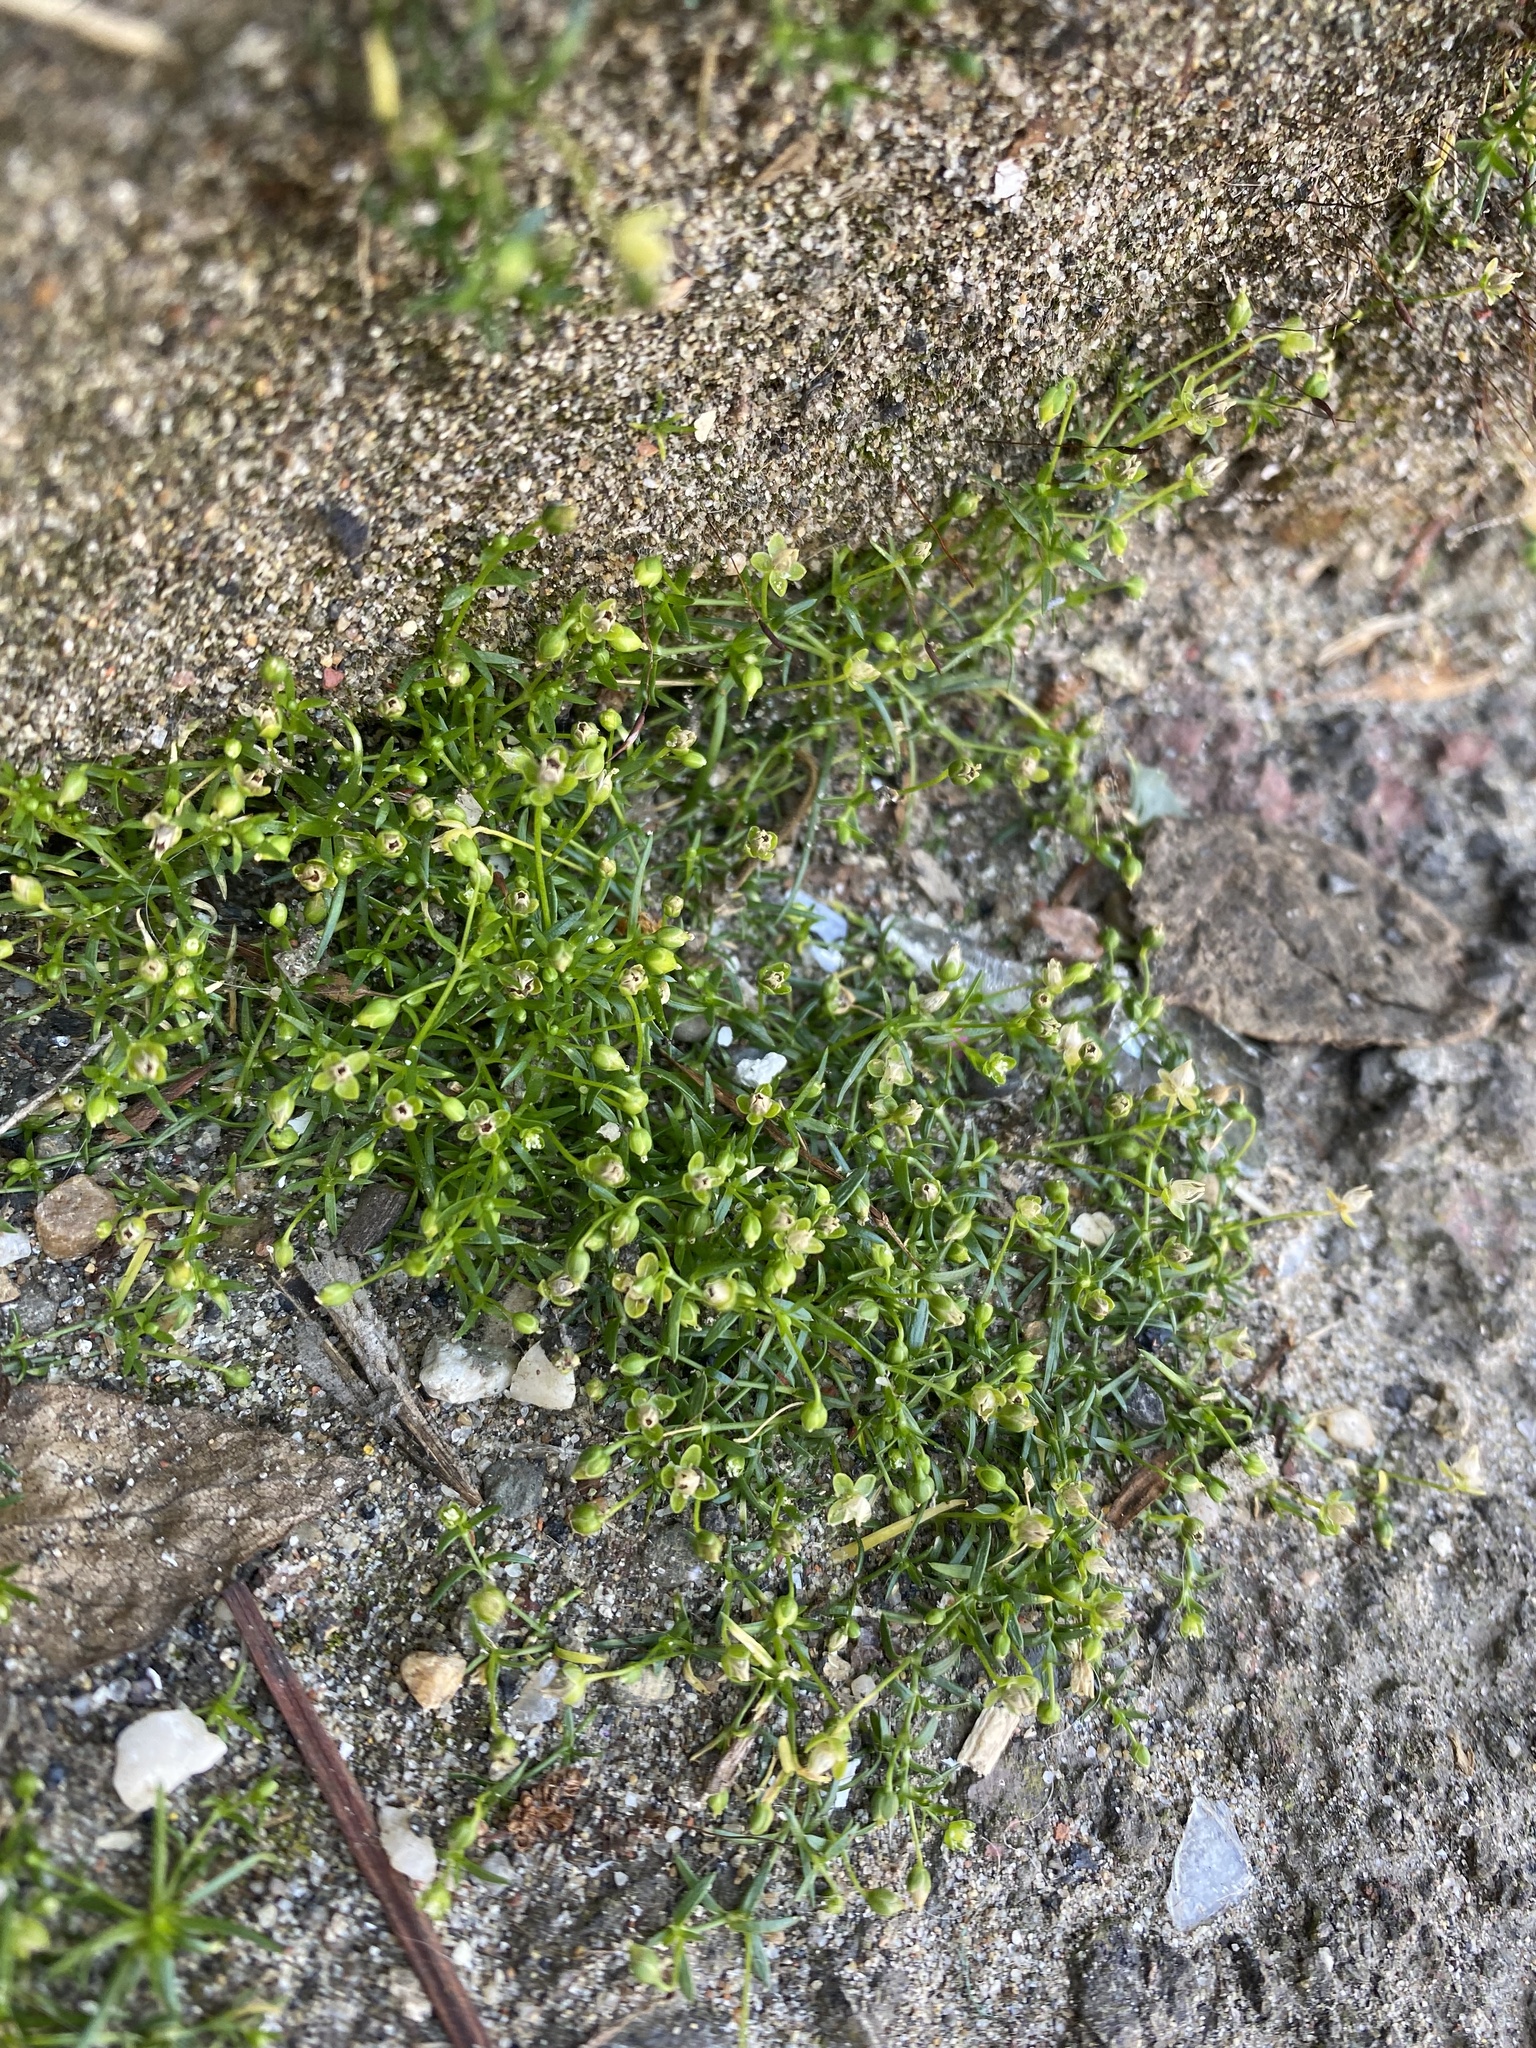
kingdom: Plantae
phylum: Tracheophyta
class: Magnoliopsida
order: Caryophyllales
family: Caryophyllaceae
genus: Sagina
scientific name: Sagina procumbens
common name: Procumbent pearlwort
